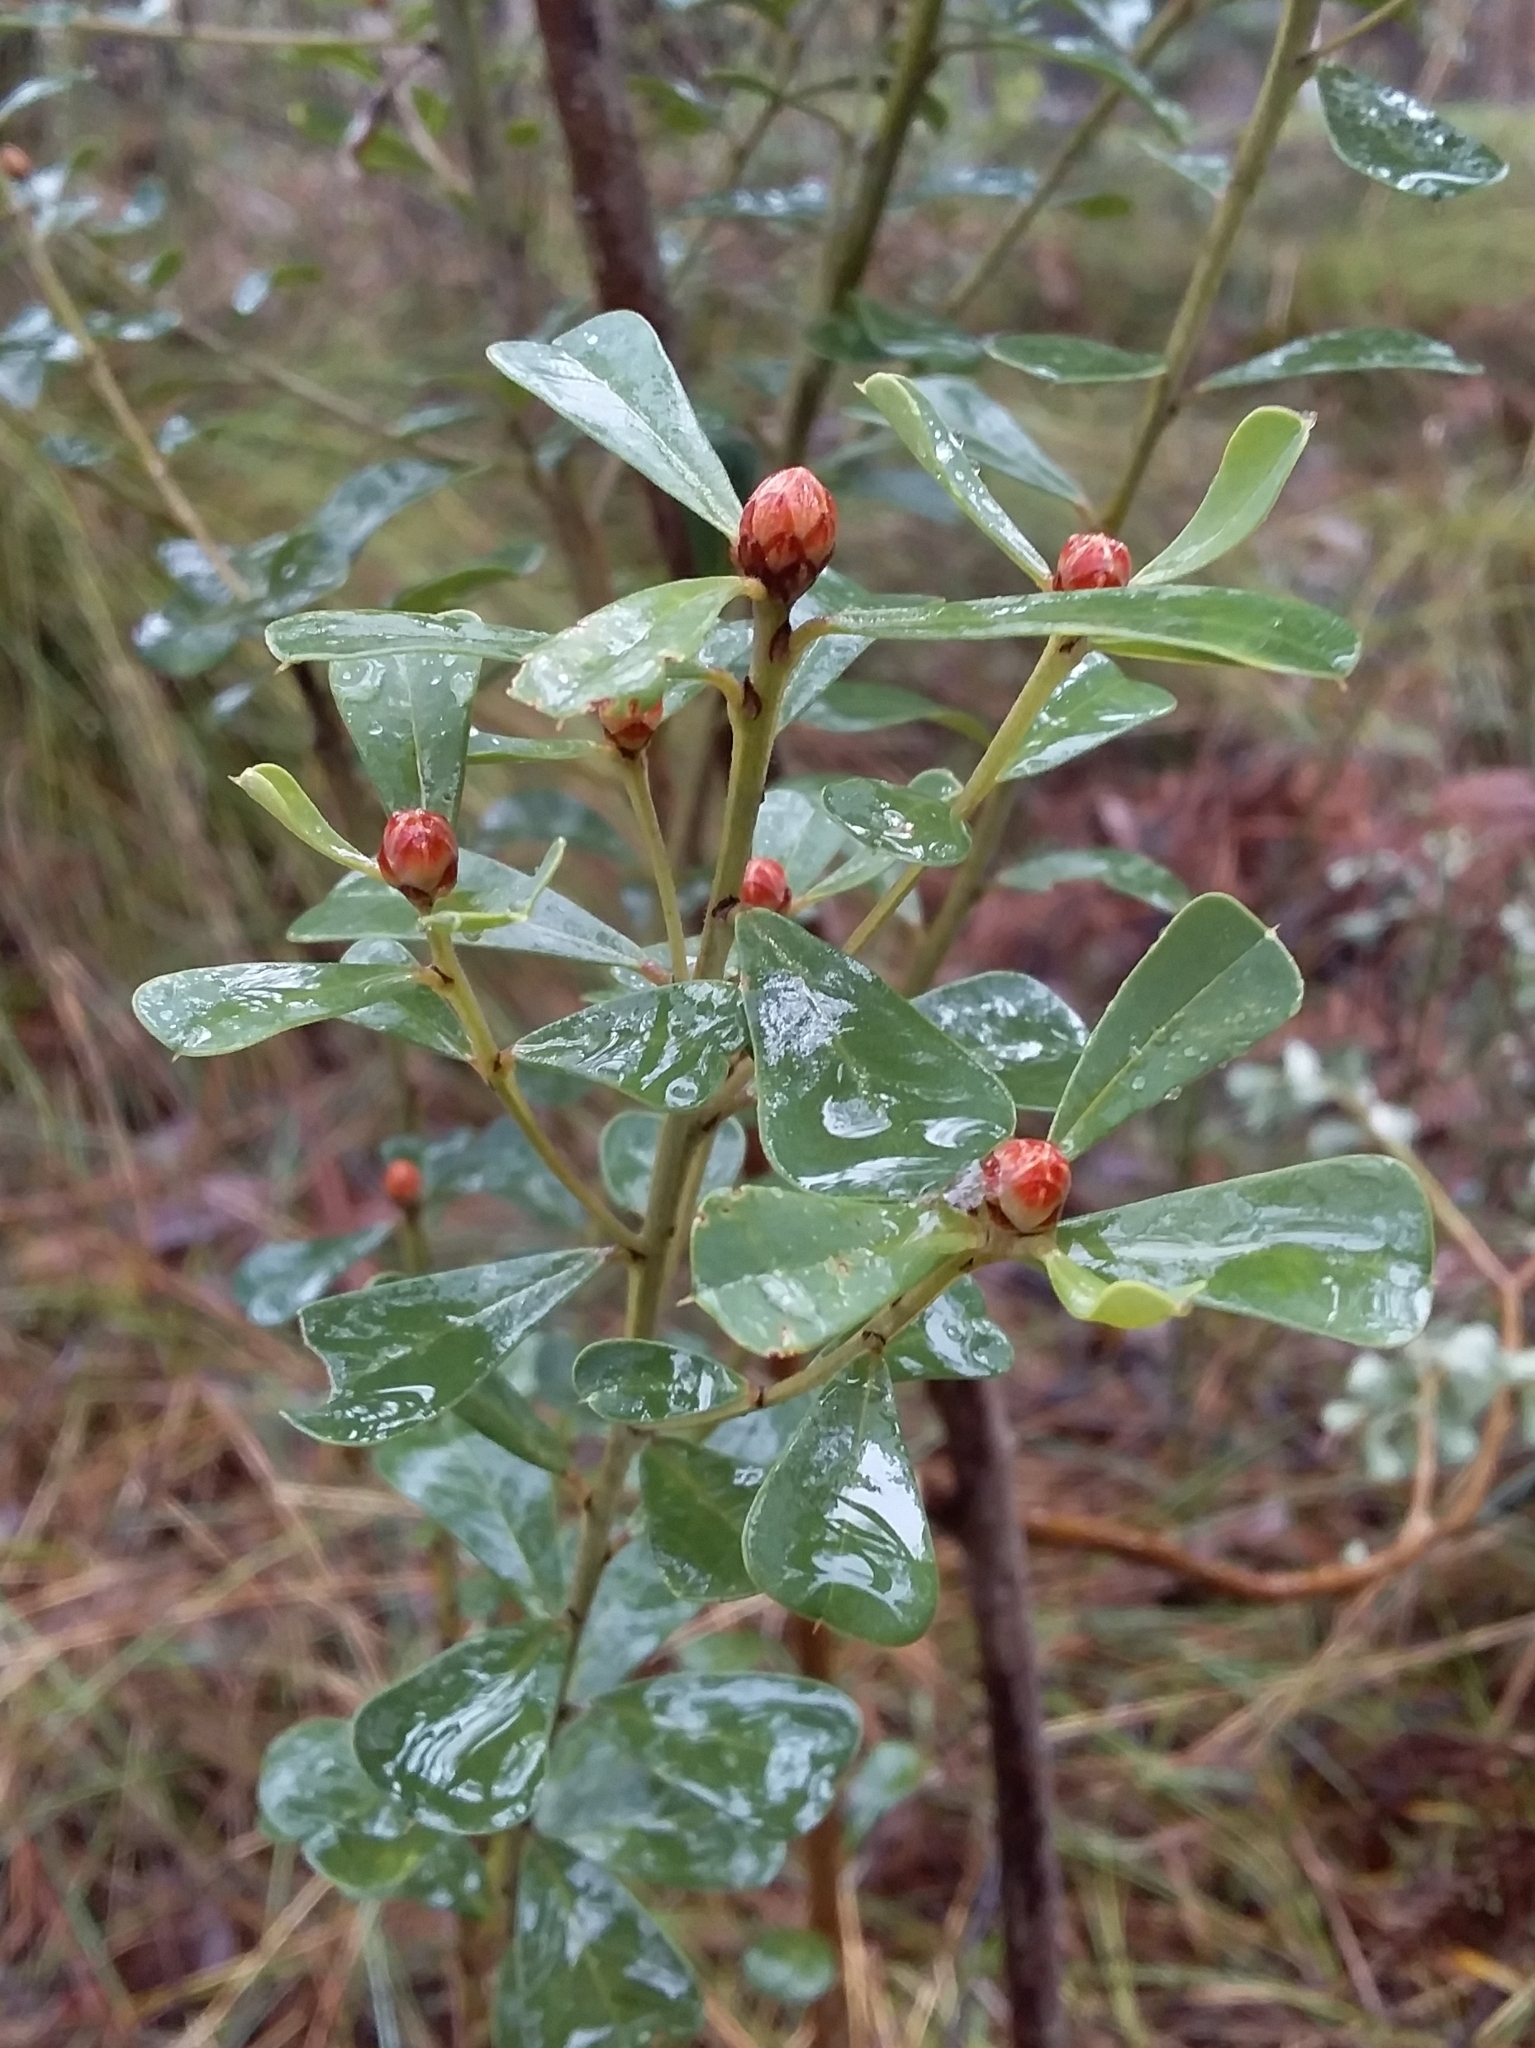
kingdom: Plantae
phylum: Tracheophyta
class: Magnoliopsida
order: Fabales
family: Fabaceae
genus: Pultenaea
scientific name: Pultenaea daphnoides
